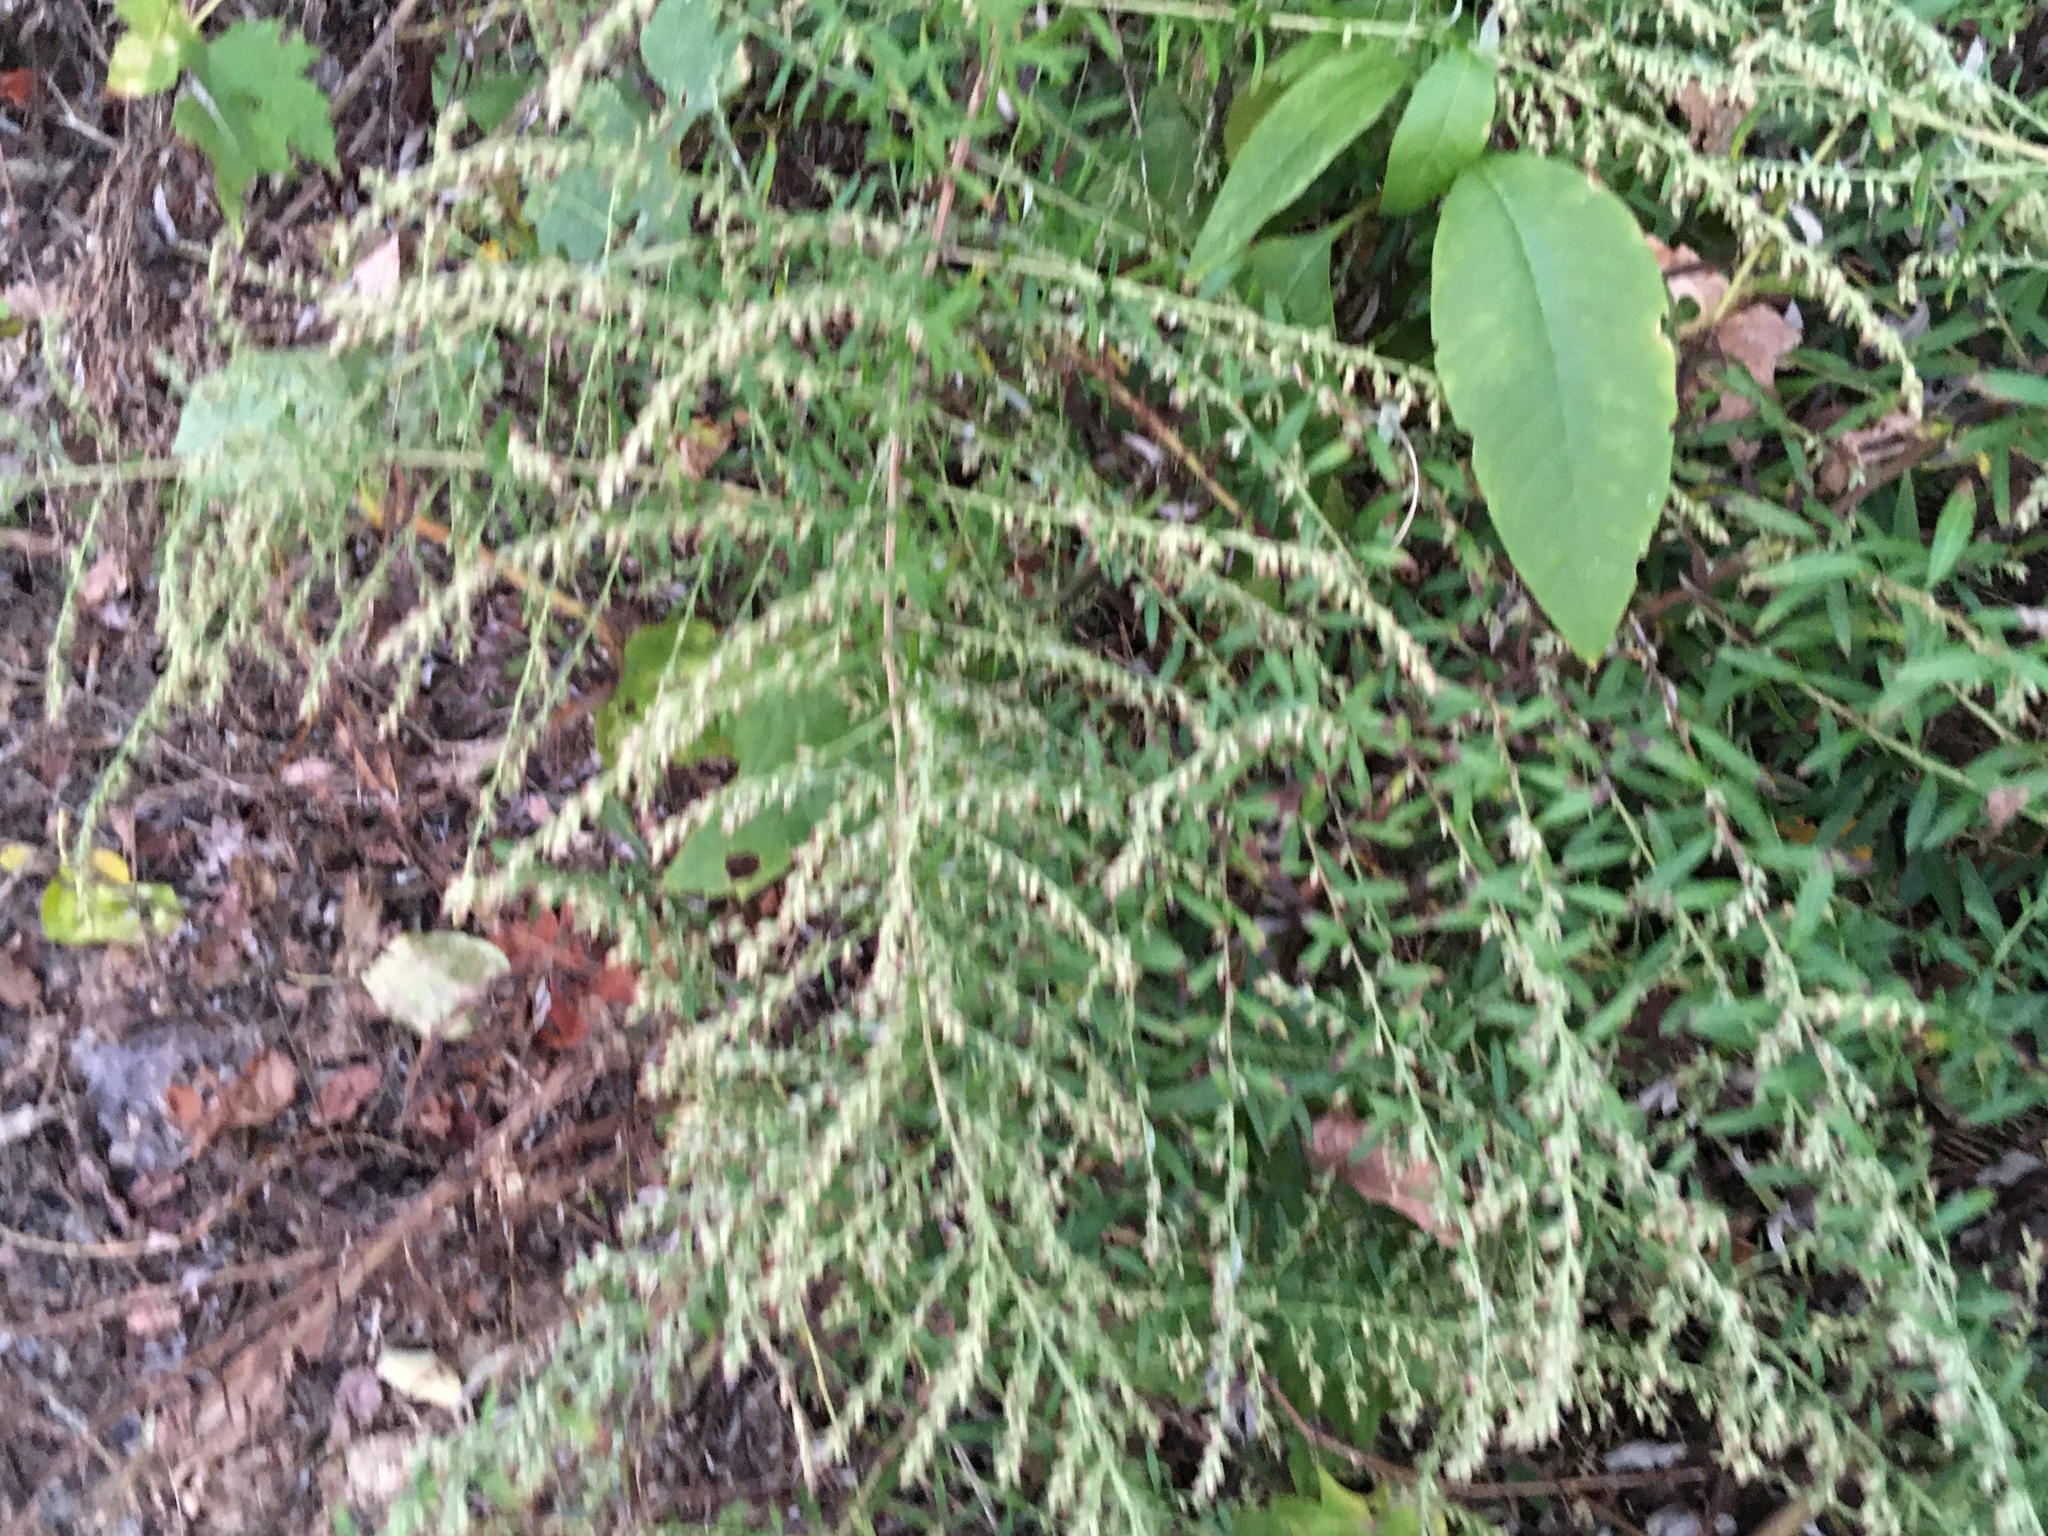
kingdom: Plantae
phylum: Tracheophyta
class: Magnoliopsida
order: Asterales
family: Asteraceae
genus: Artemisia
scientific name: Artemisia vulgaris
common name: Mugwort
